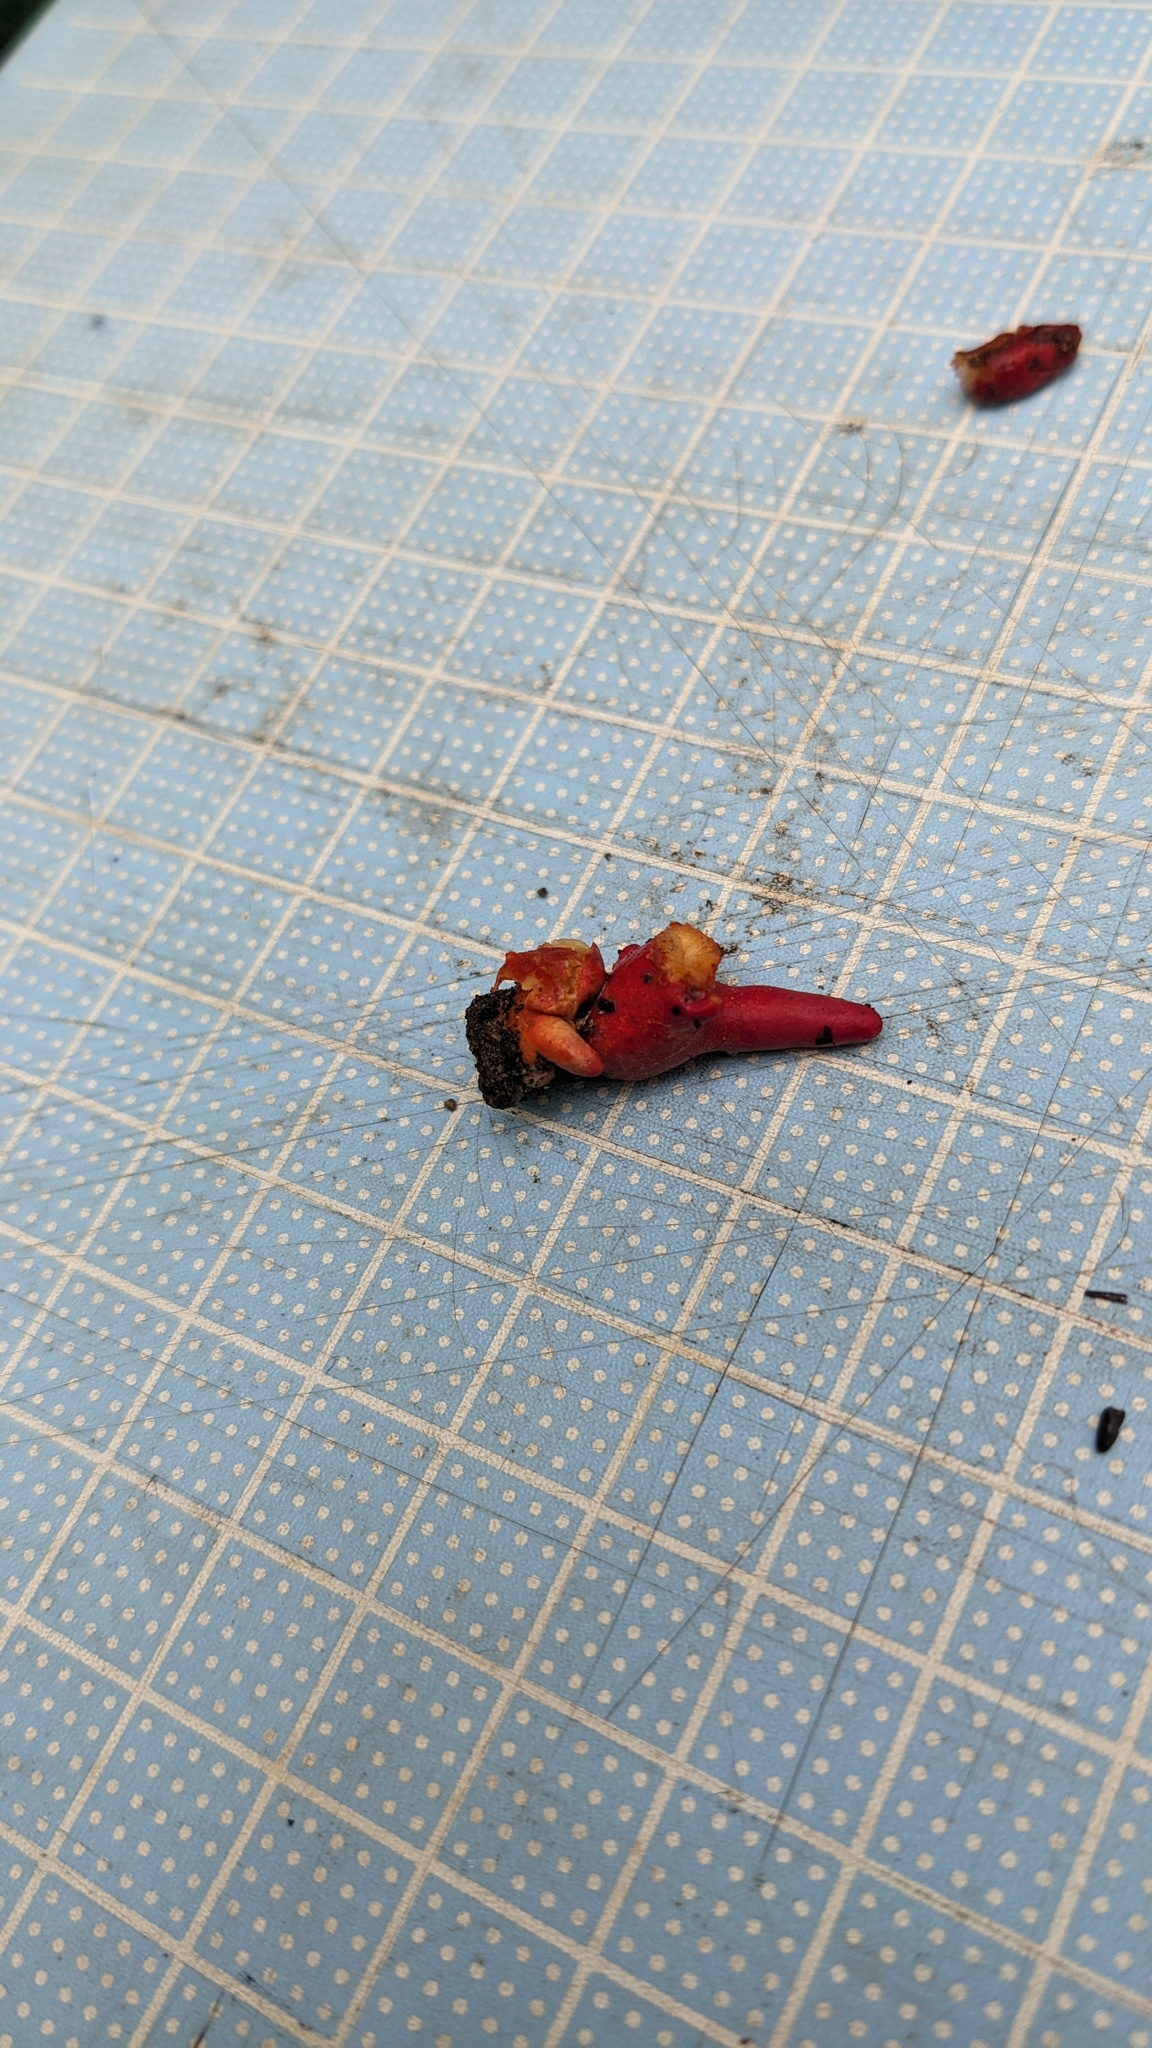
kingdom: Fungi
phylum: Ascomycota
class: Sordariomycetes
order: Hypocreales
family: Hypocreaceae
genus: Trichoderma
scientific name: Trichoderma cornu-damae
